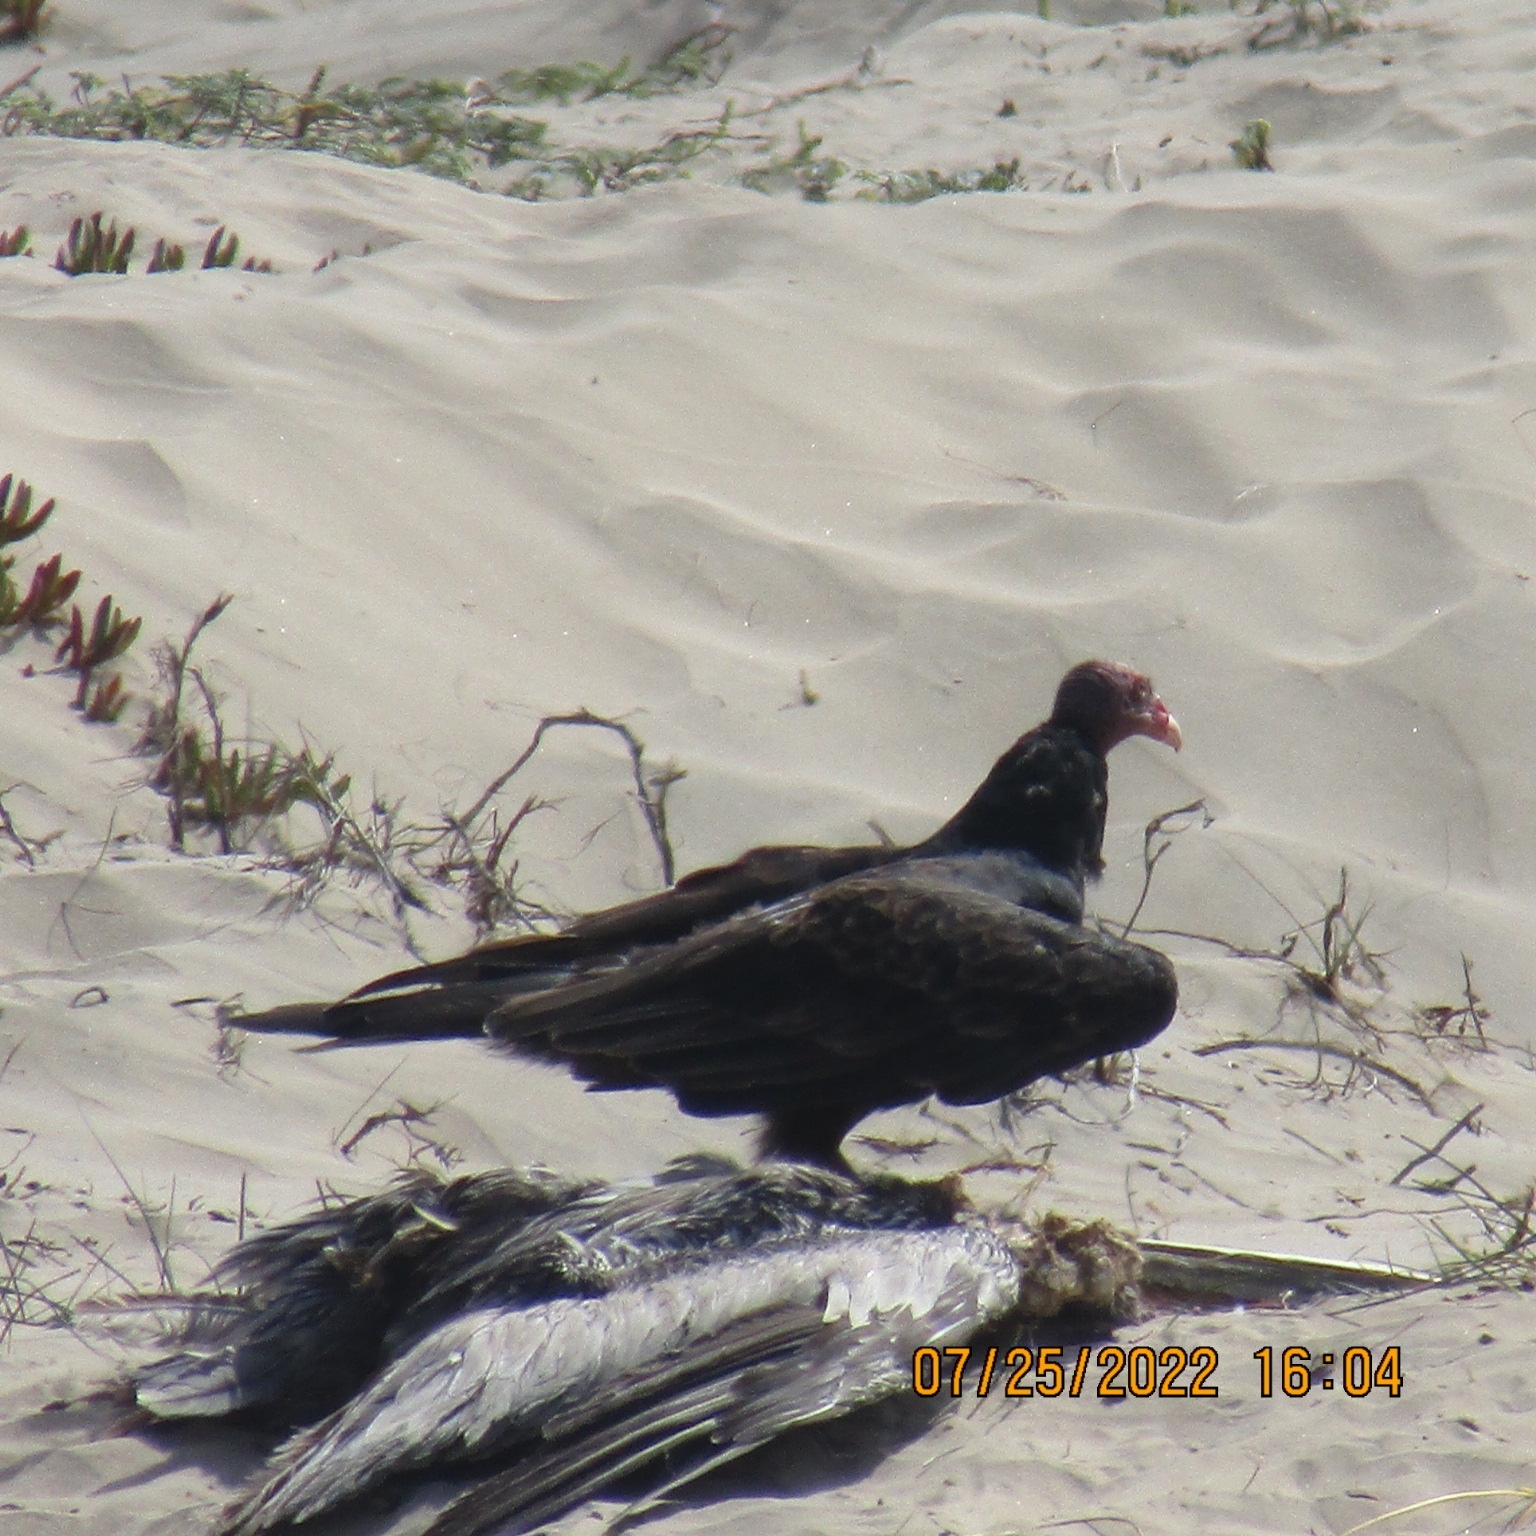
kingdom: Animalia
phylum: Chordata
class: Aves
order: Accipitriformes
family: Cathartidae
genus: Cathartes
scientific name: Cathartes aura
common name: Turkey vulture
